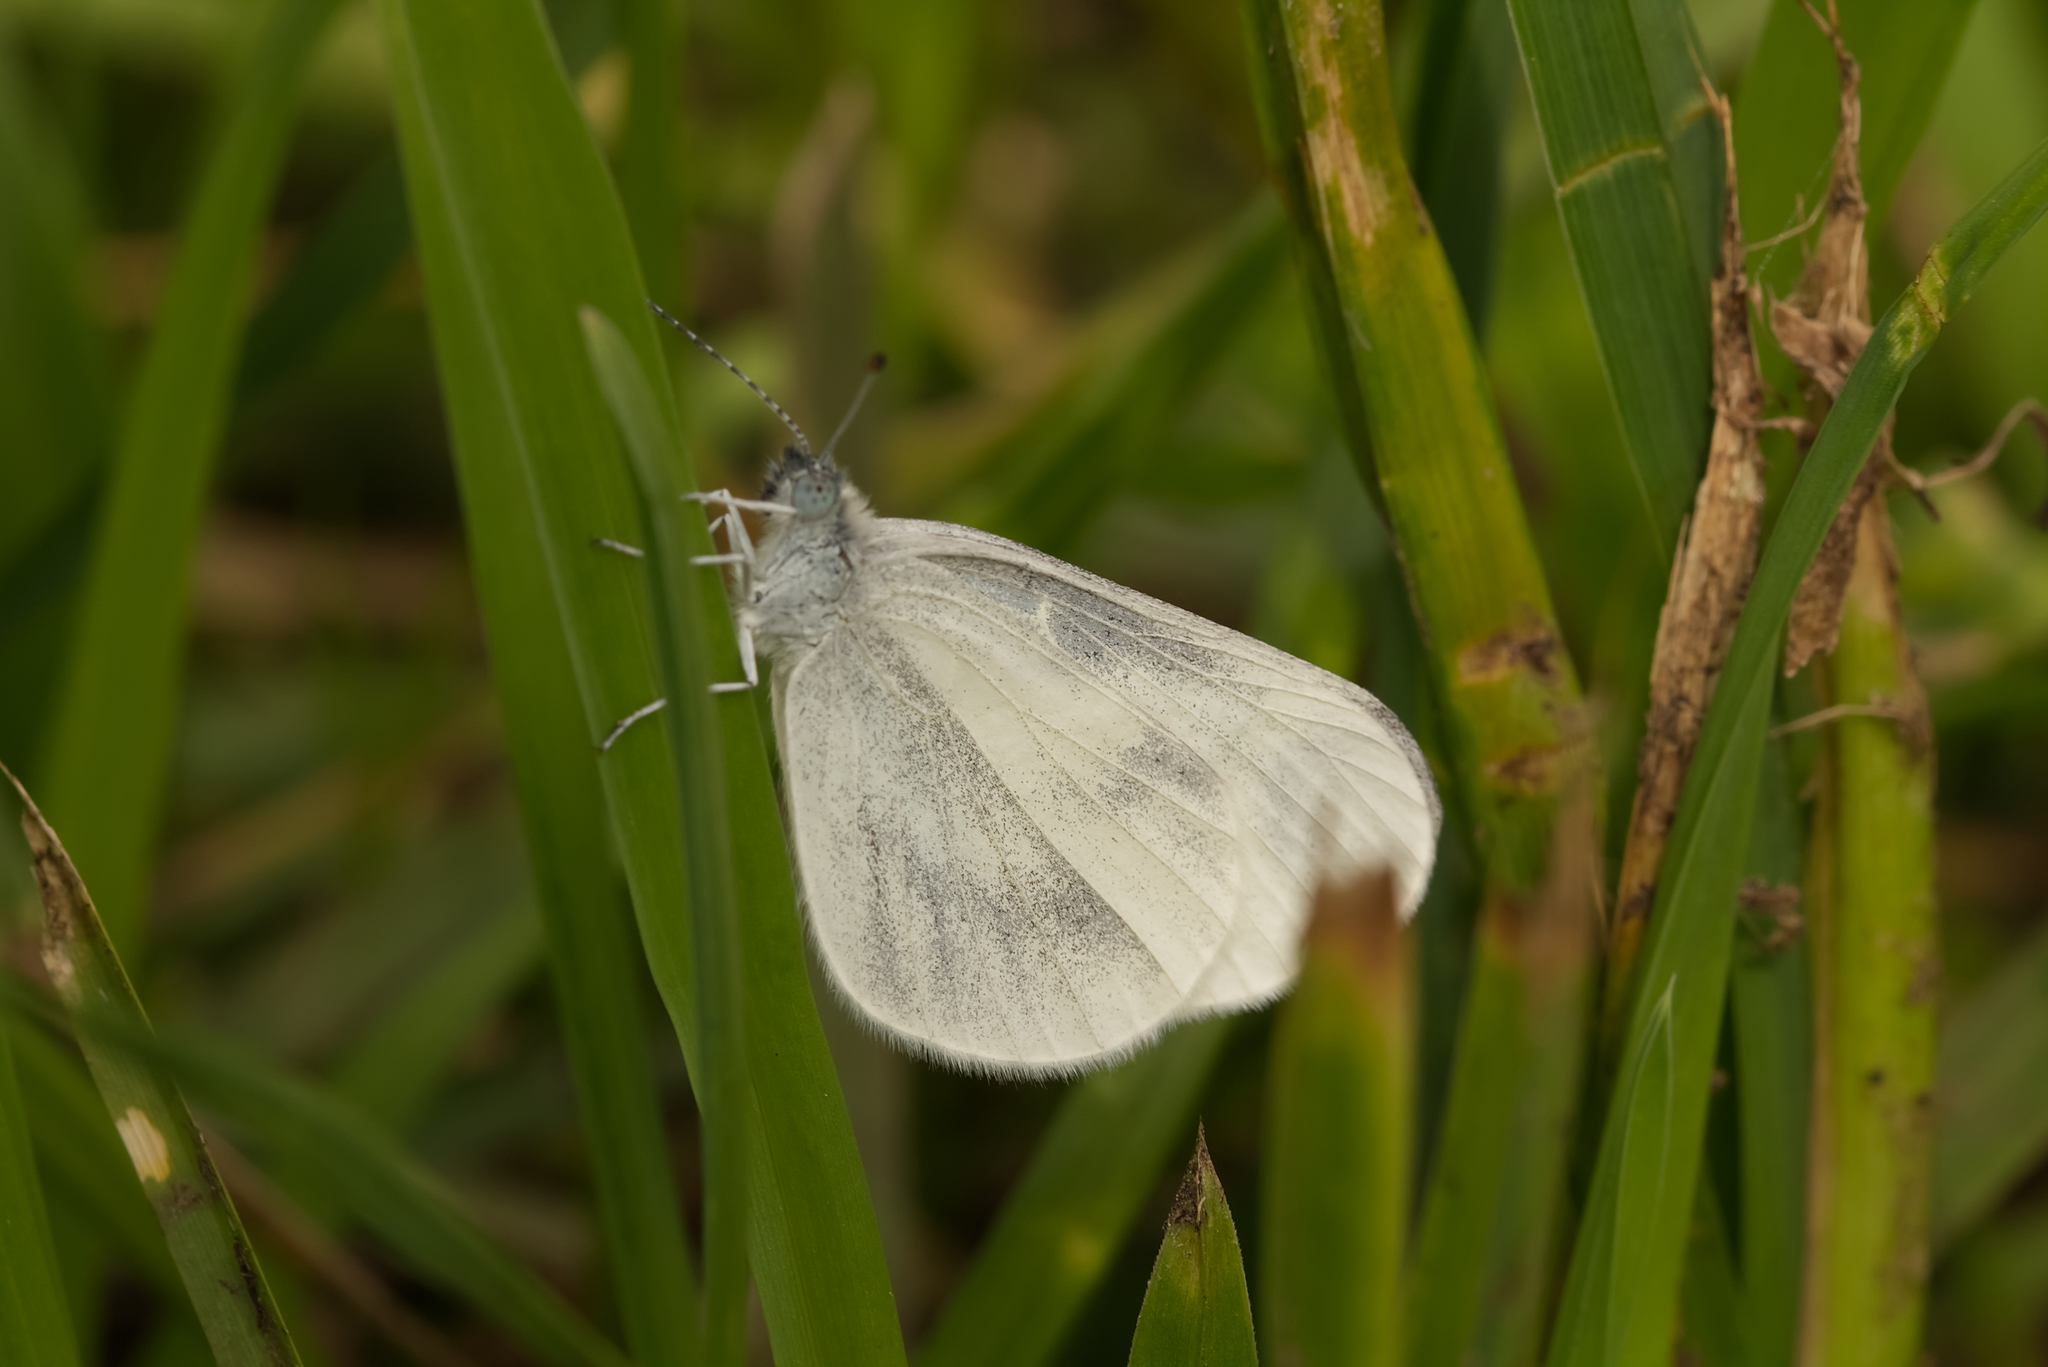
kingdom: Animalia
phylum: Arthropoda
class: Insecta
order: Lepidoptera
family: Pieridae
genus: Leptidea
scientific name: Leptidea
